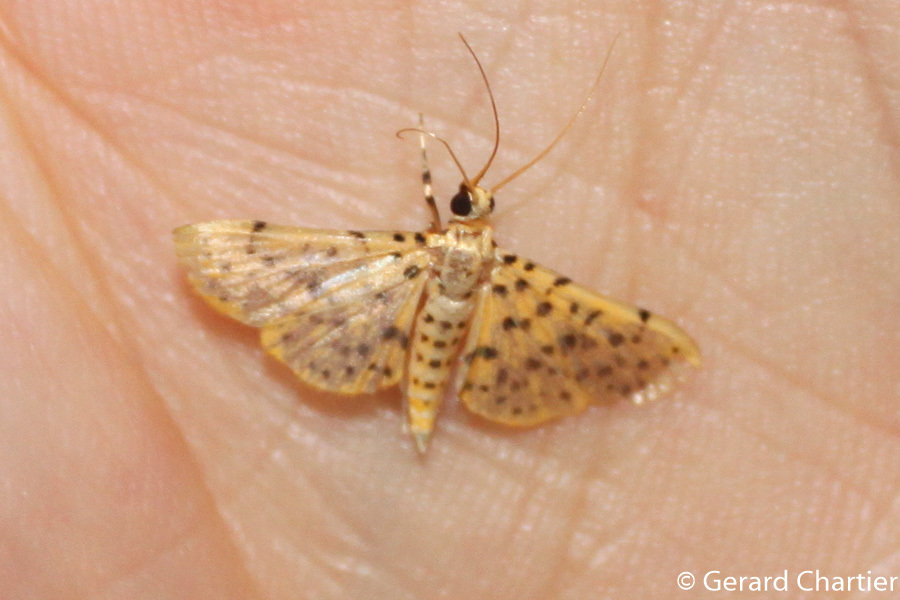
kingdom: Animalia
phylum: Arthropoda
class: Insecta
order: Lepidoptera
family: Crambidae
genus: Conogethes
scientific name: Conogethes punctiferalis
